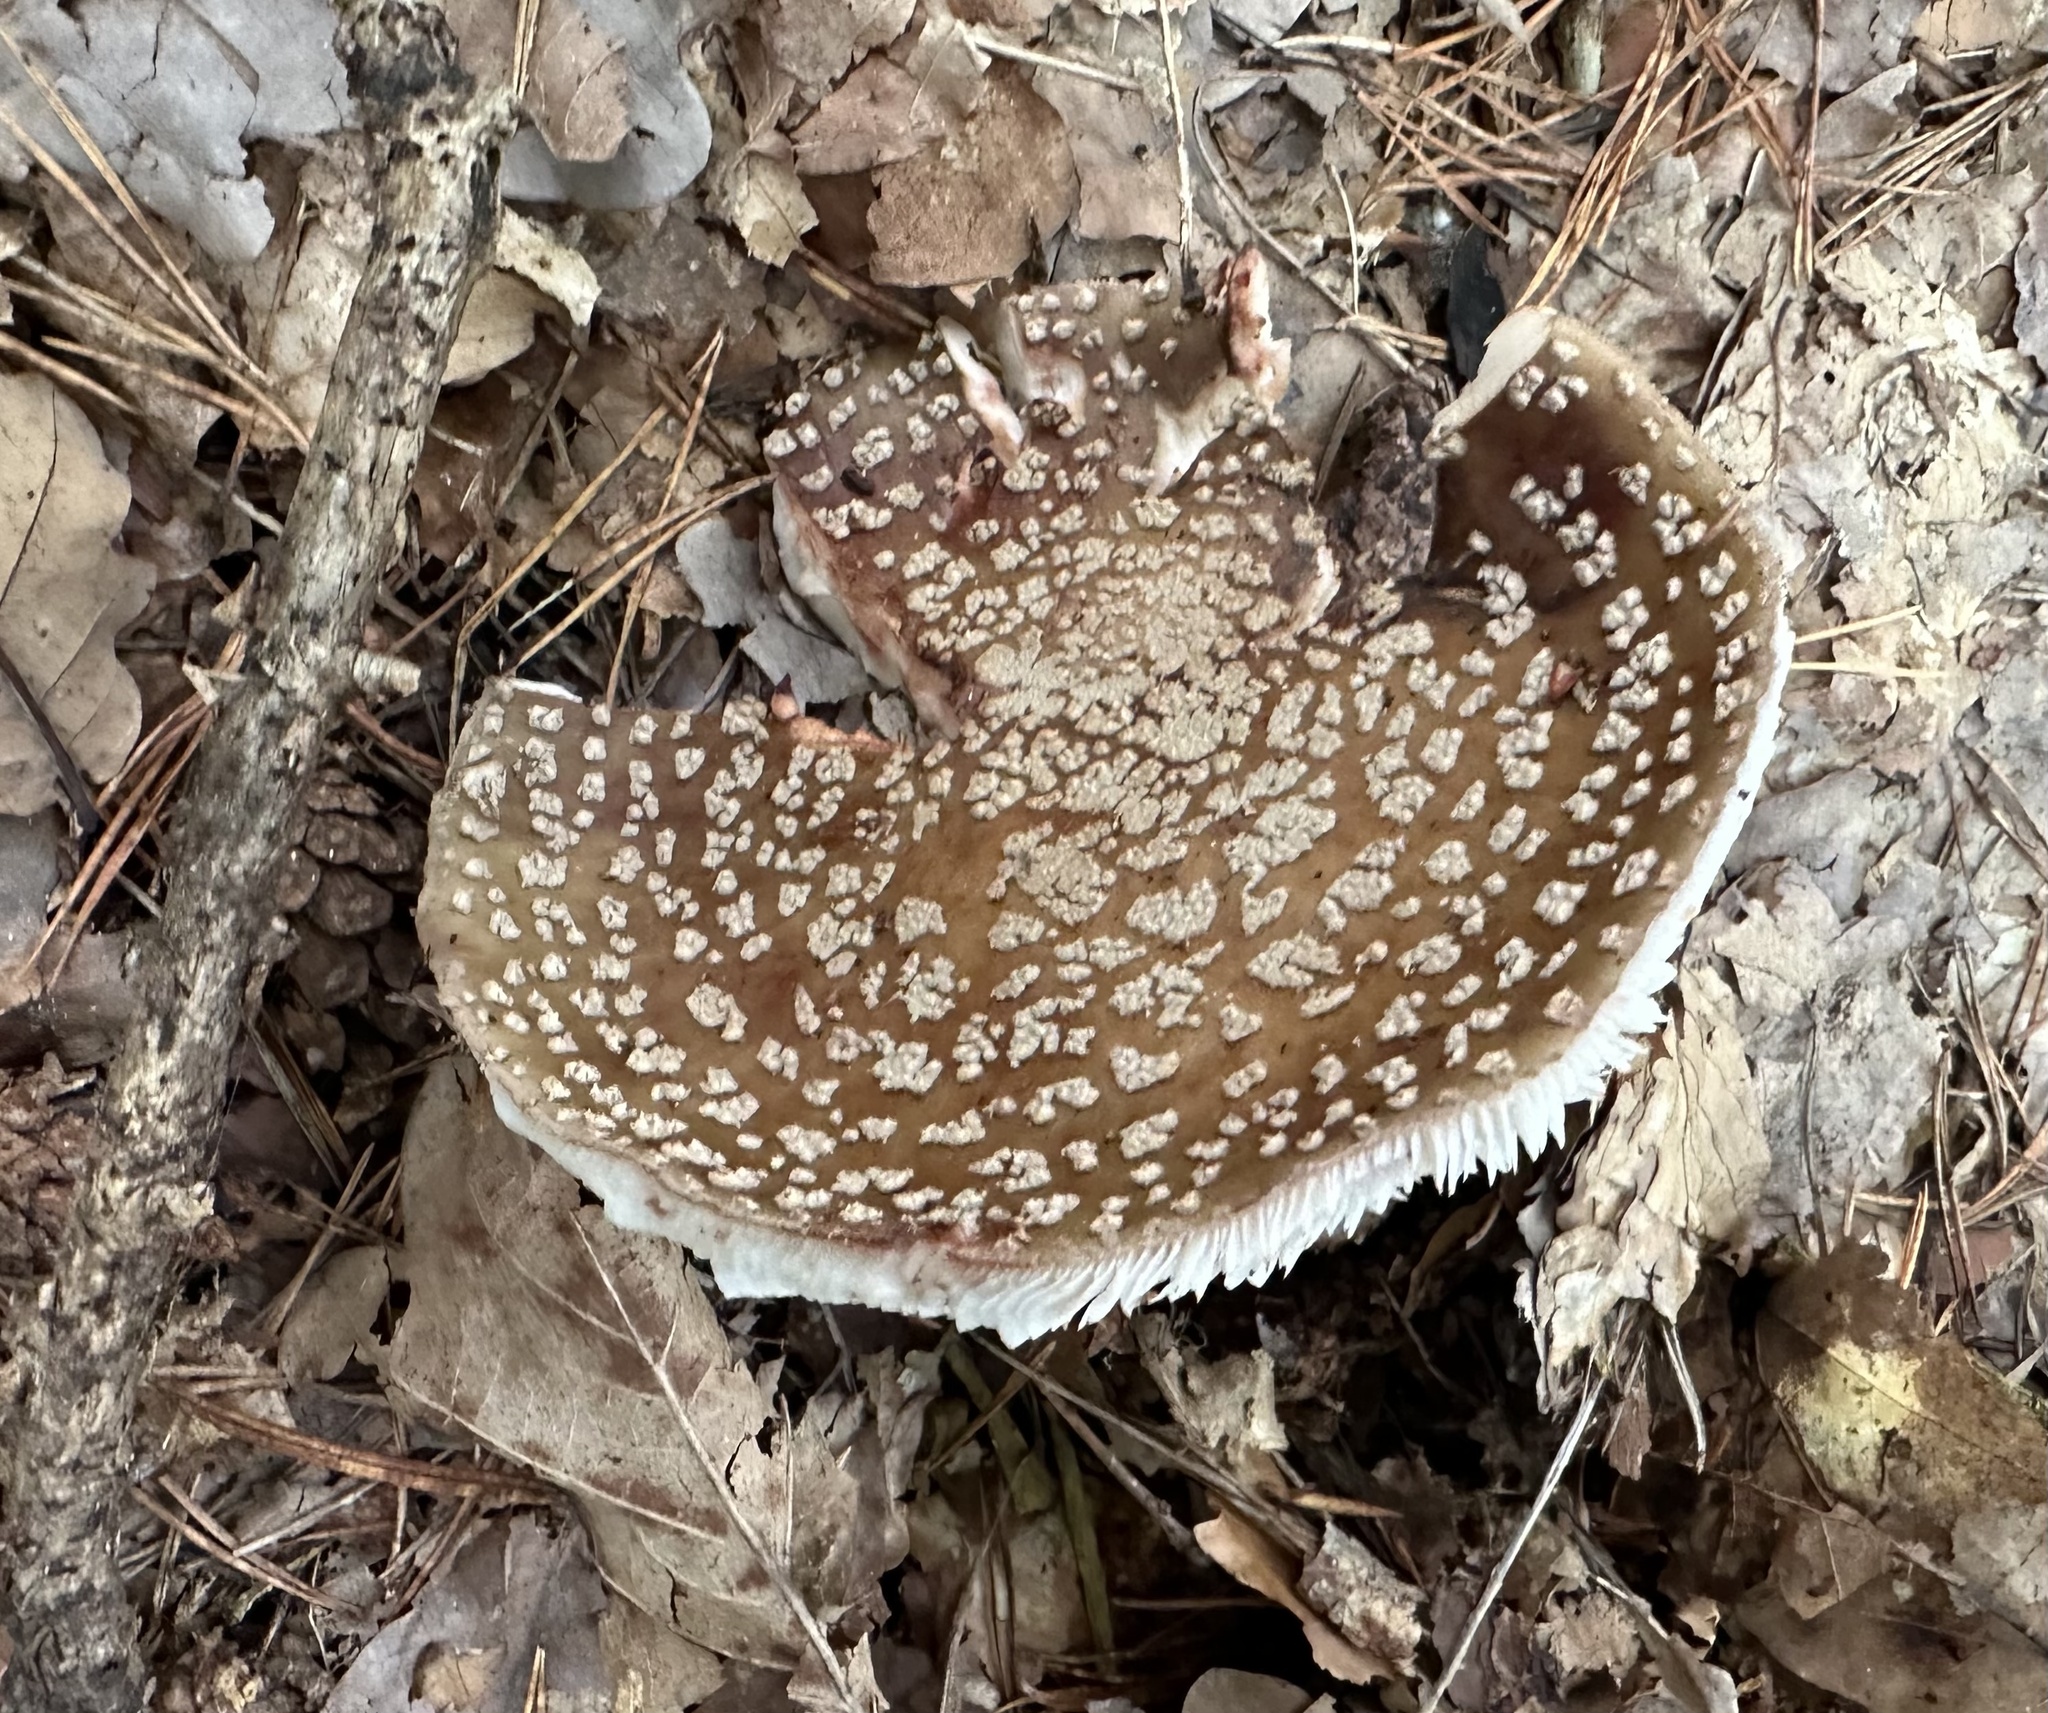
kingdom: Fungi
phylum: Basidiomycota
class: Agaricomycetes
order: Agaricales
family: Amanitaceae
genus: Amanita
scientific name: Amanita rubescens
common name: Blusher
